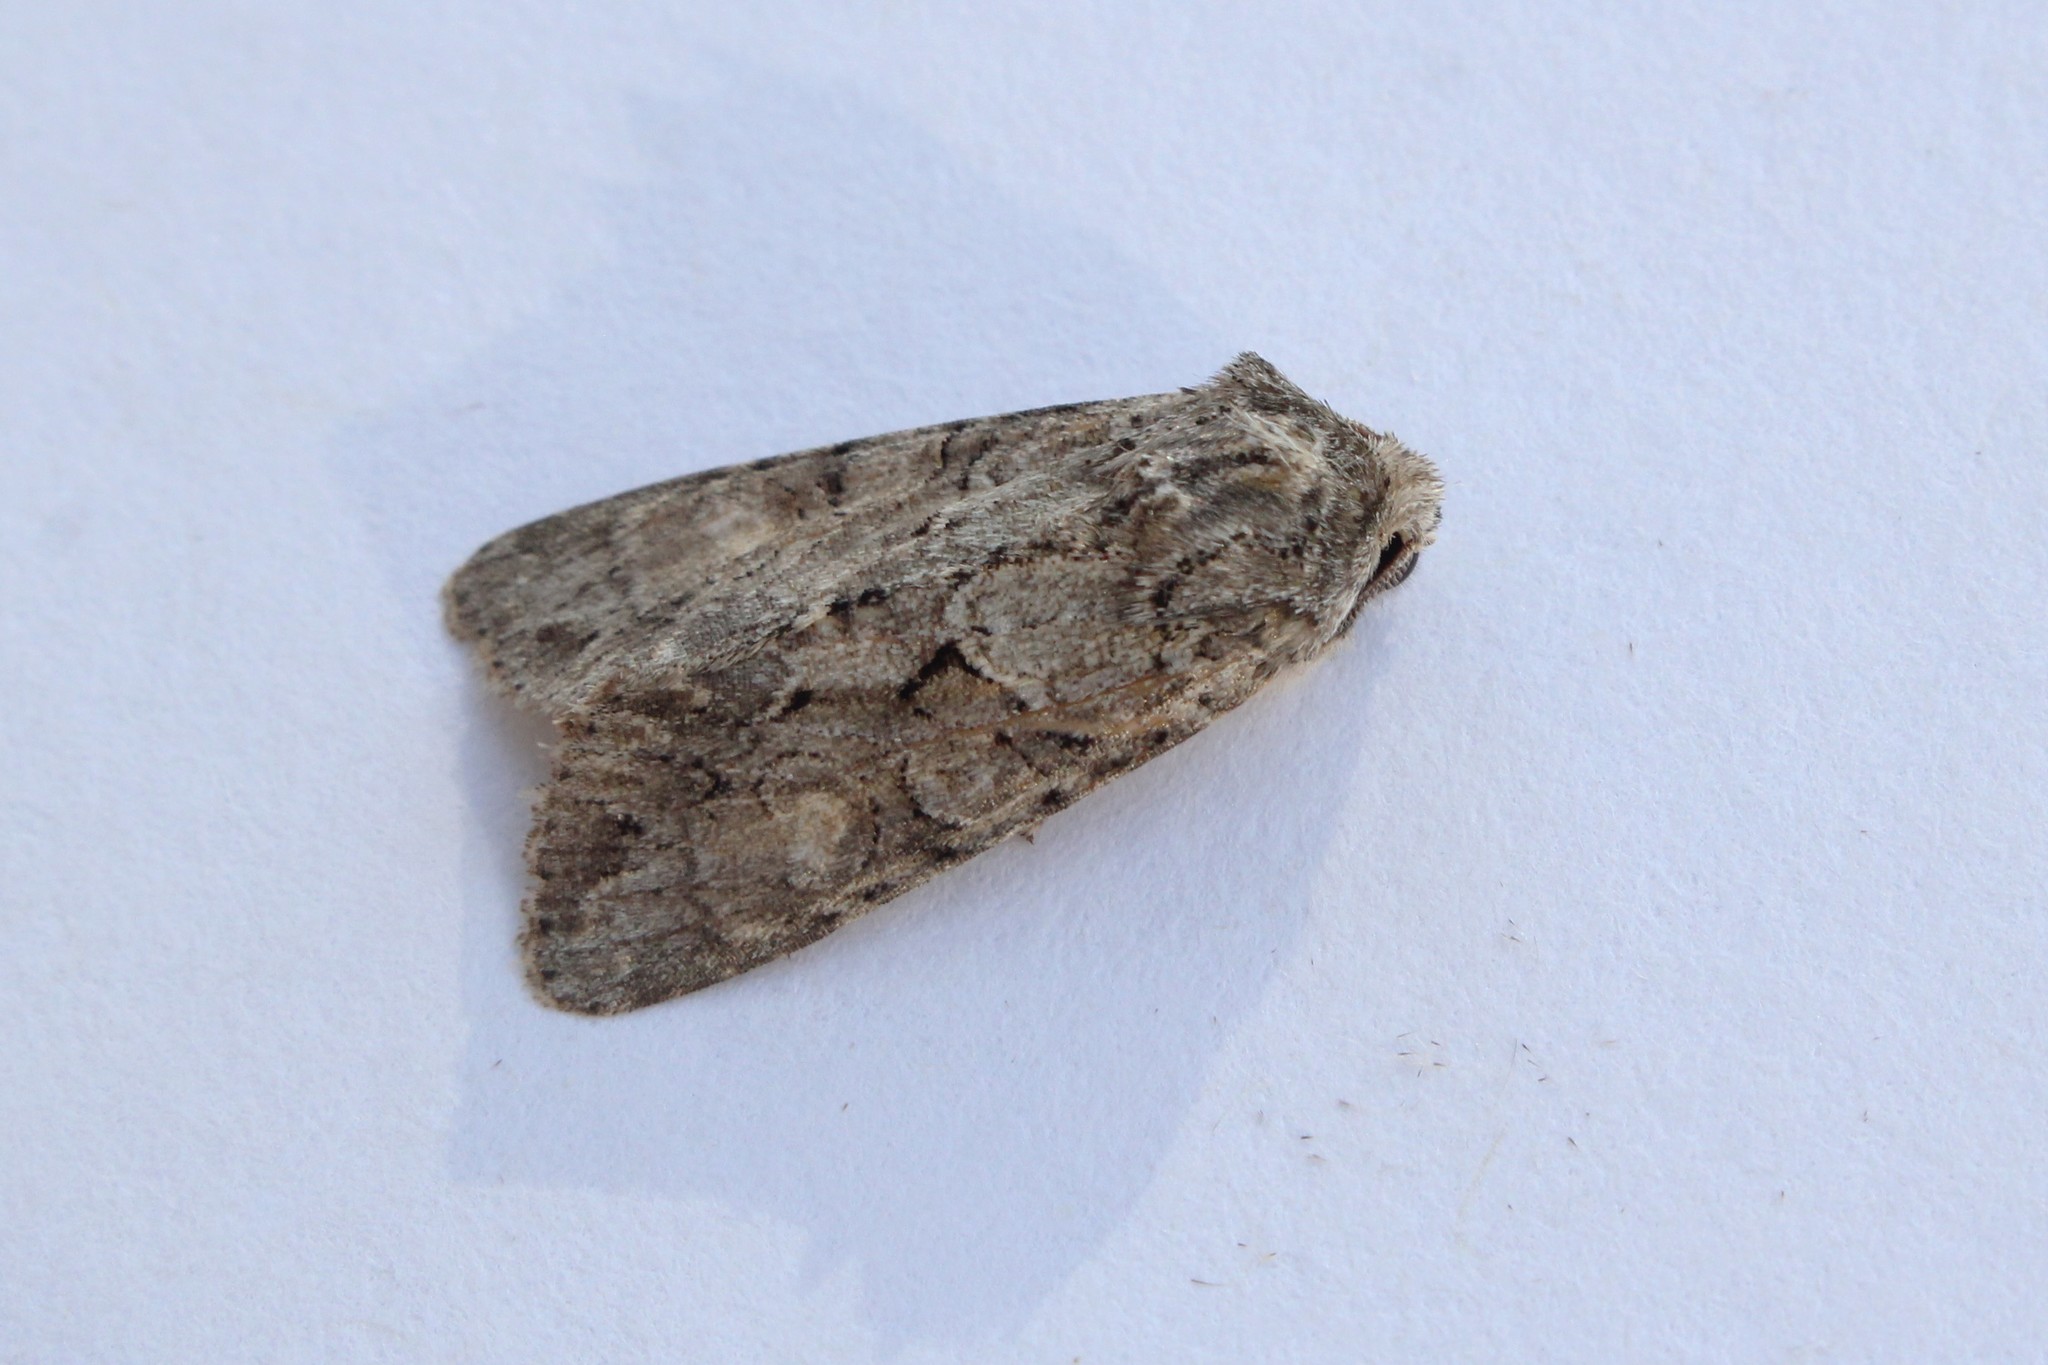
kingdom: Animalia
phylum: Arthropoda
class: Insecta
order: Lepidoptera
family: Noctuidae
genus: Achatia
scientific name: Achatia distincta
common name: Distinct quaker
